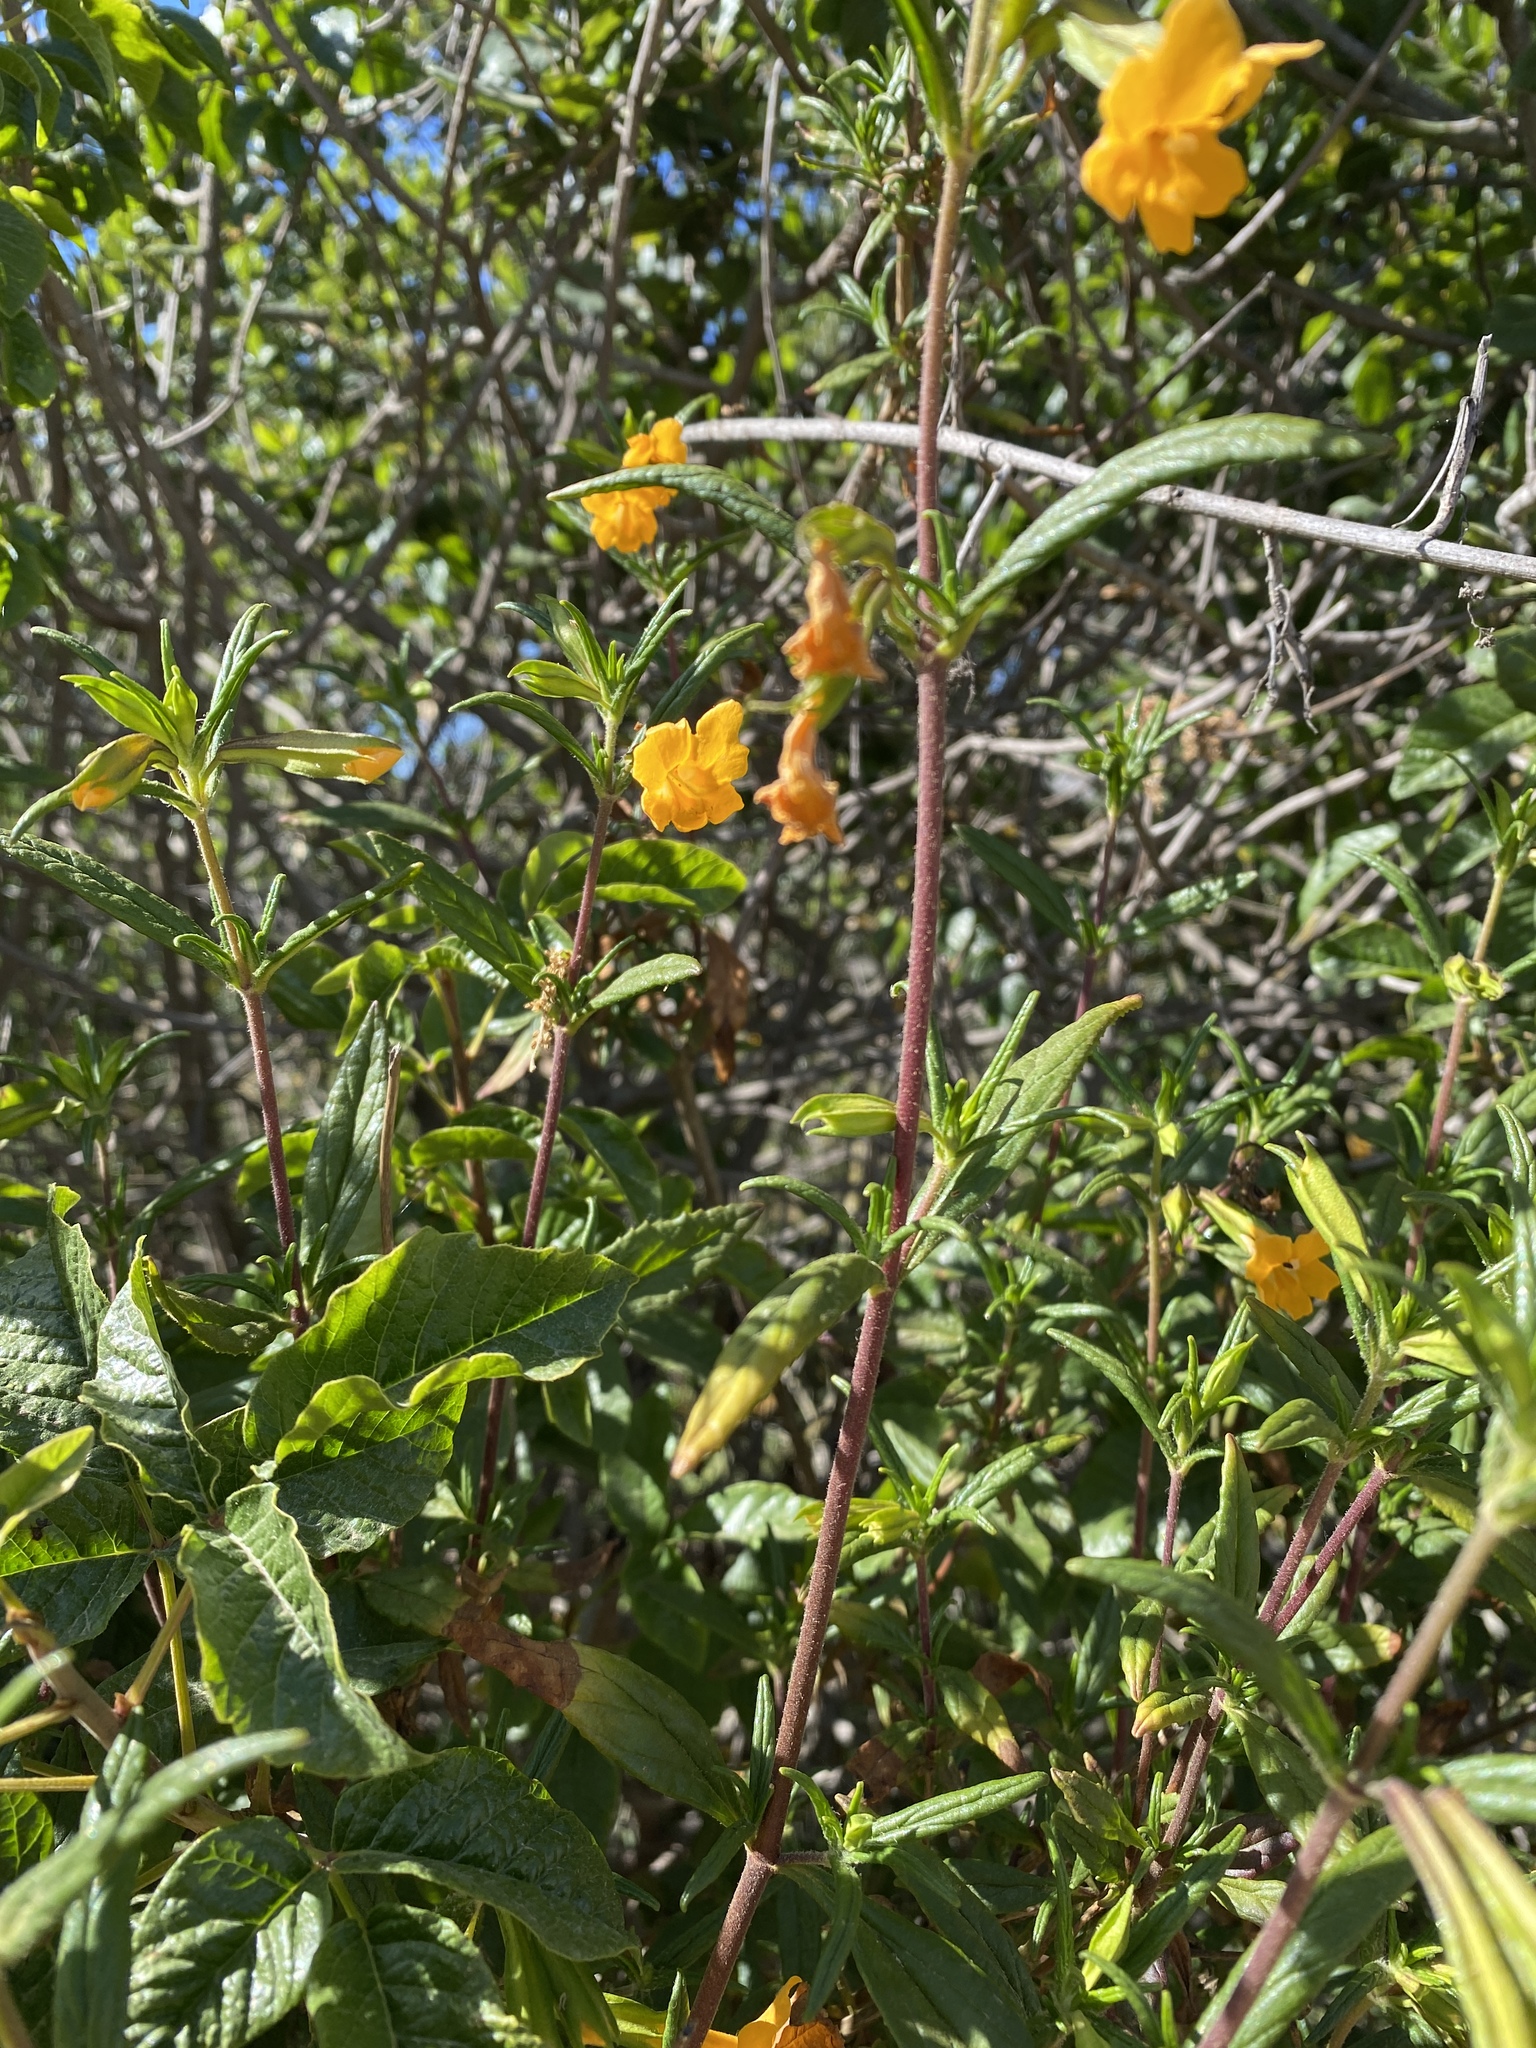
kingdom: Plantae
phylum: Tracheophyta
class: Magnoliopsida
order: Lamiales
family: Phrymaceae
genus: Diplacus
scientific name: Diplacus aurantiacus
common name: Bush monkey-flower
